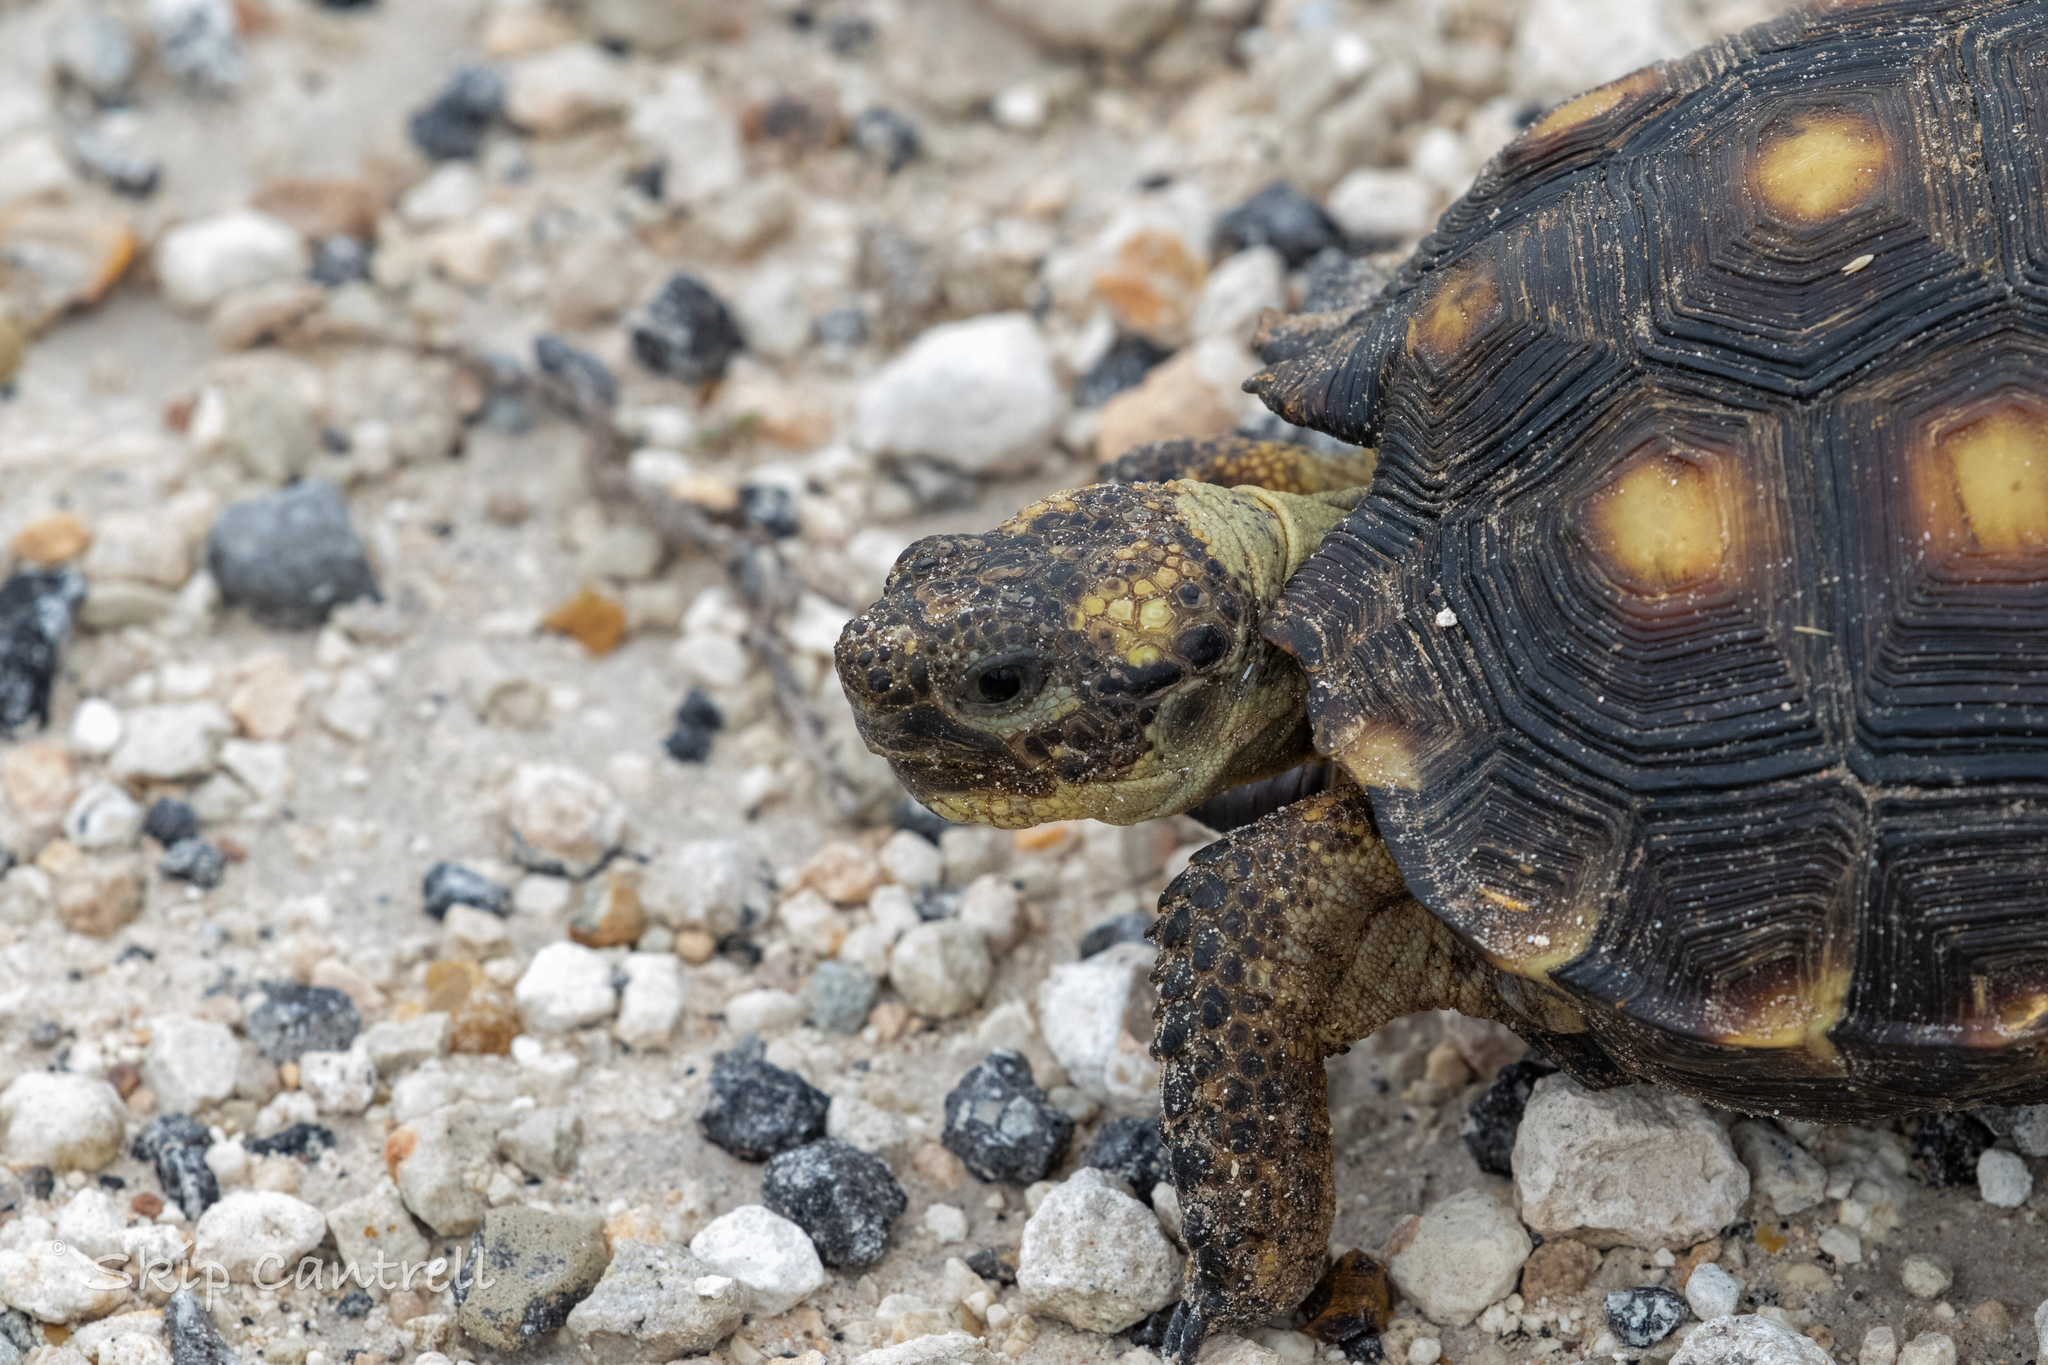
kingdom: Animalia
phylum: Chordata
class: Testudines
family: Testudinidae
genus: Gopherus
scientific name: Gopherus berlandieri
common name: Texas (gopher )tortoise
